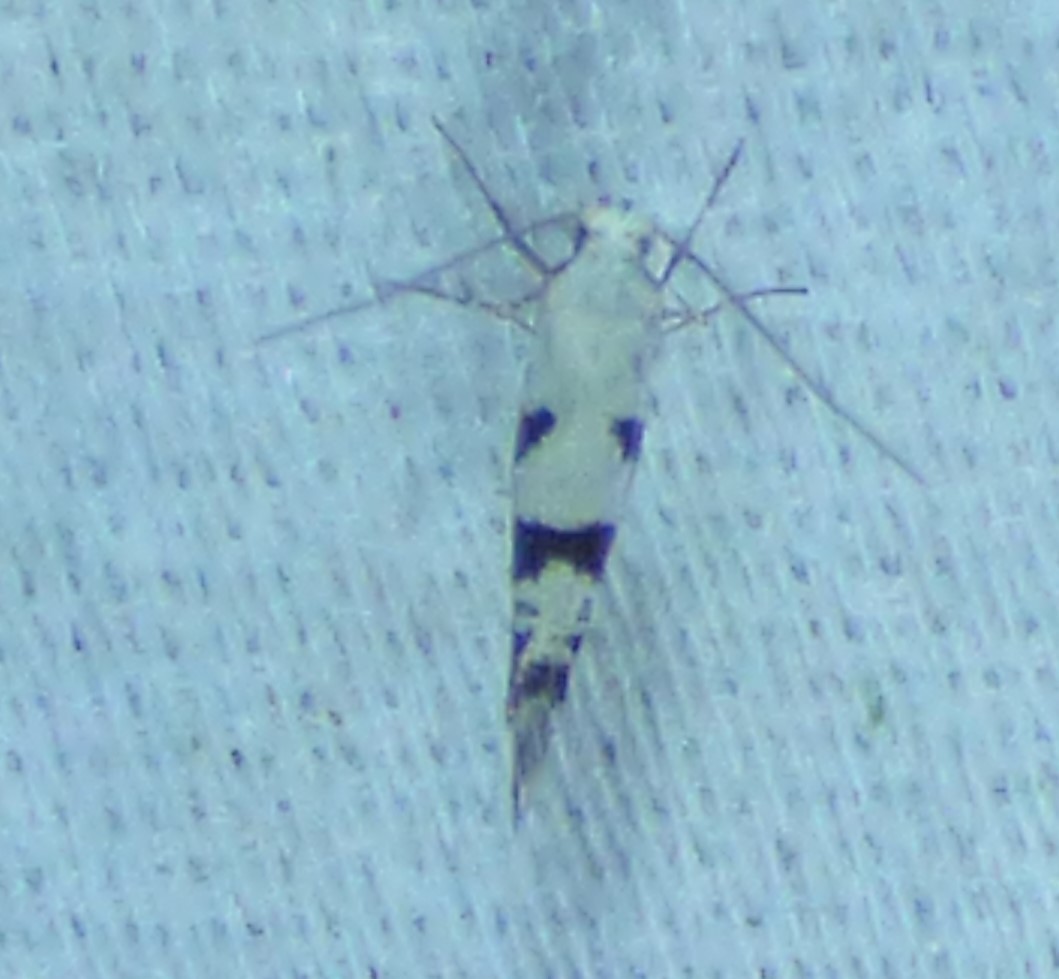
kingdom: Animalia
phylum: Arthropoda
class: Insecta
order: Lepidoptera
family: Argyresthiidae
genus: Argyresthia
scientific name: Argyresthia austerella
